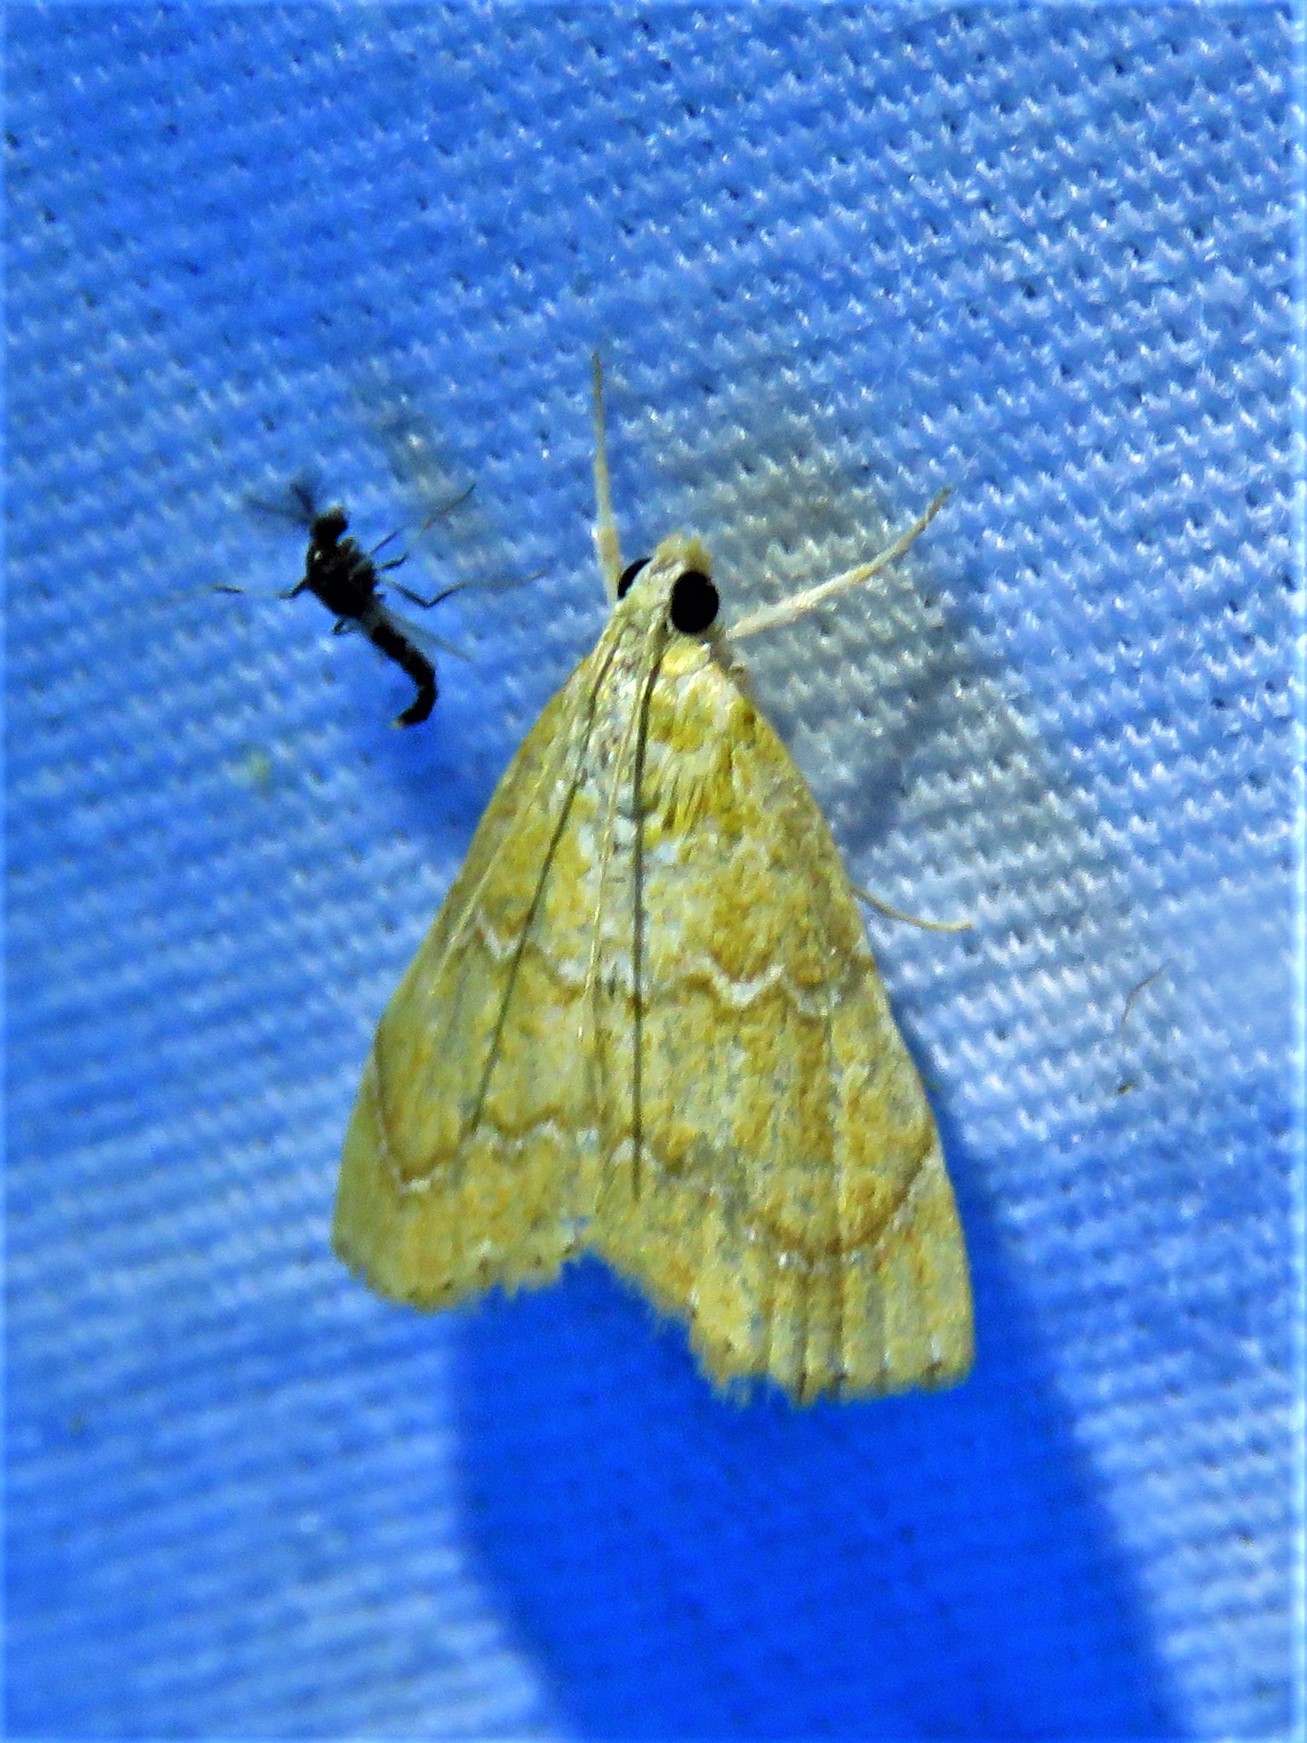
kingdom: Animalia
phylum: Arthropoda
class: Insecta
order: Lepidoptera
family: Crambidae
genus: Glaphyria
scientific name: Glaphyria sesquistrialis
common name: White-roped glaphyria
